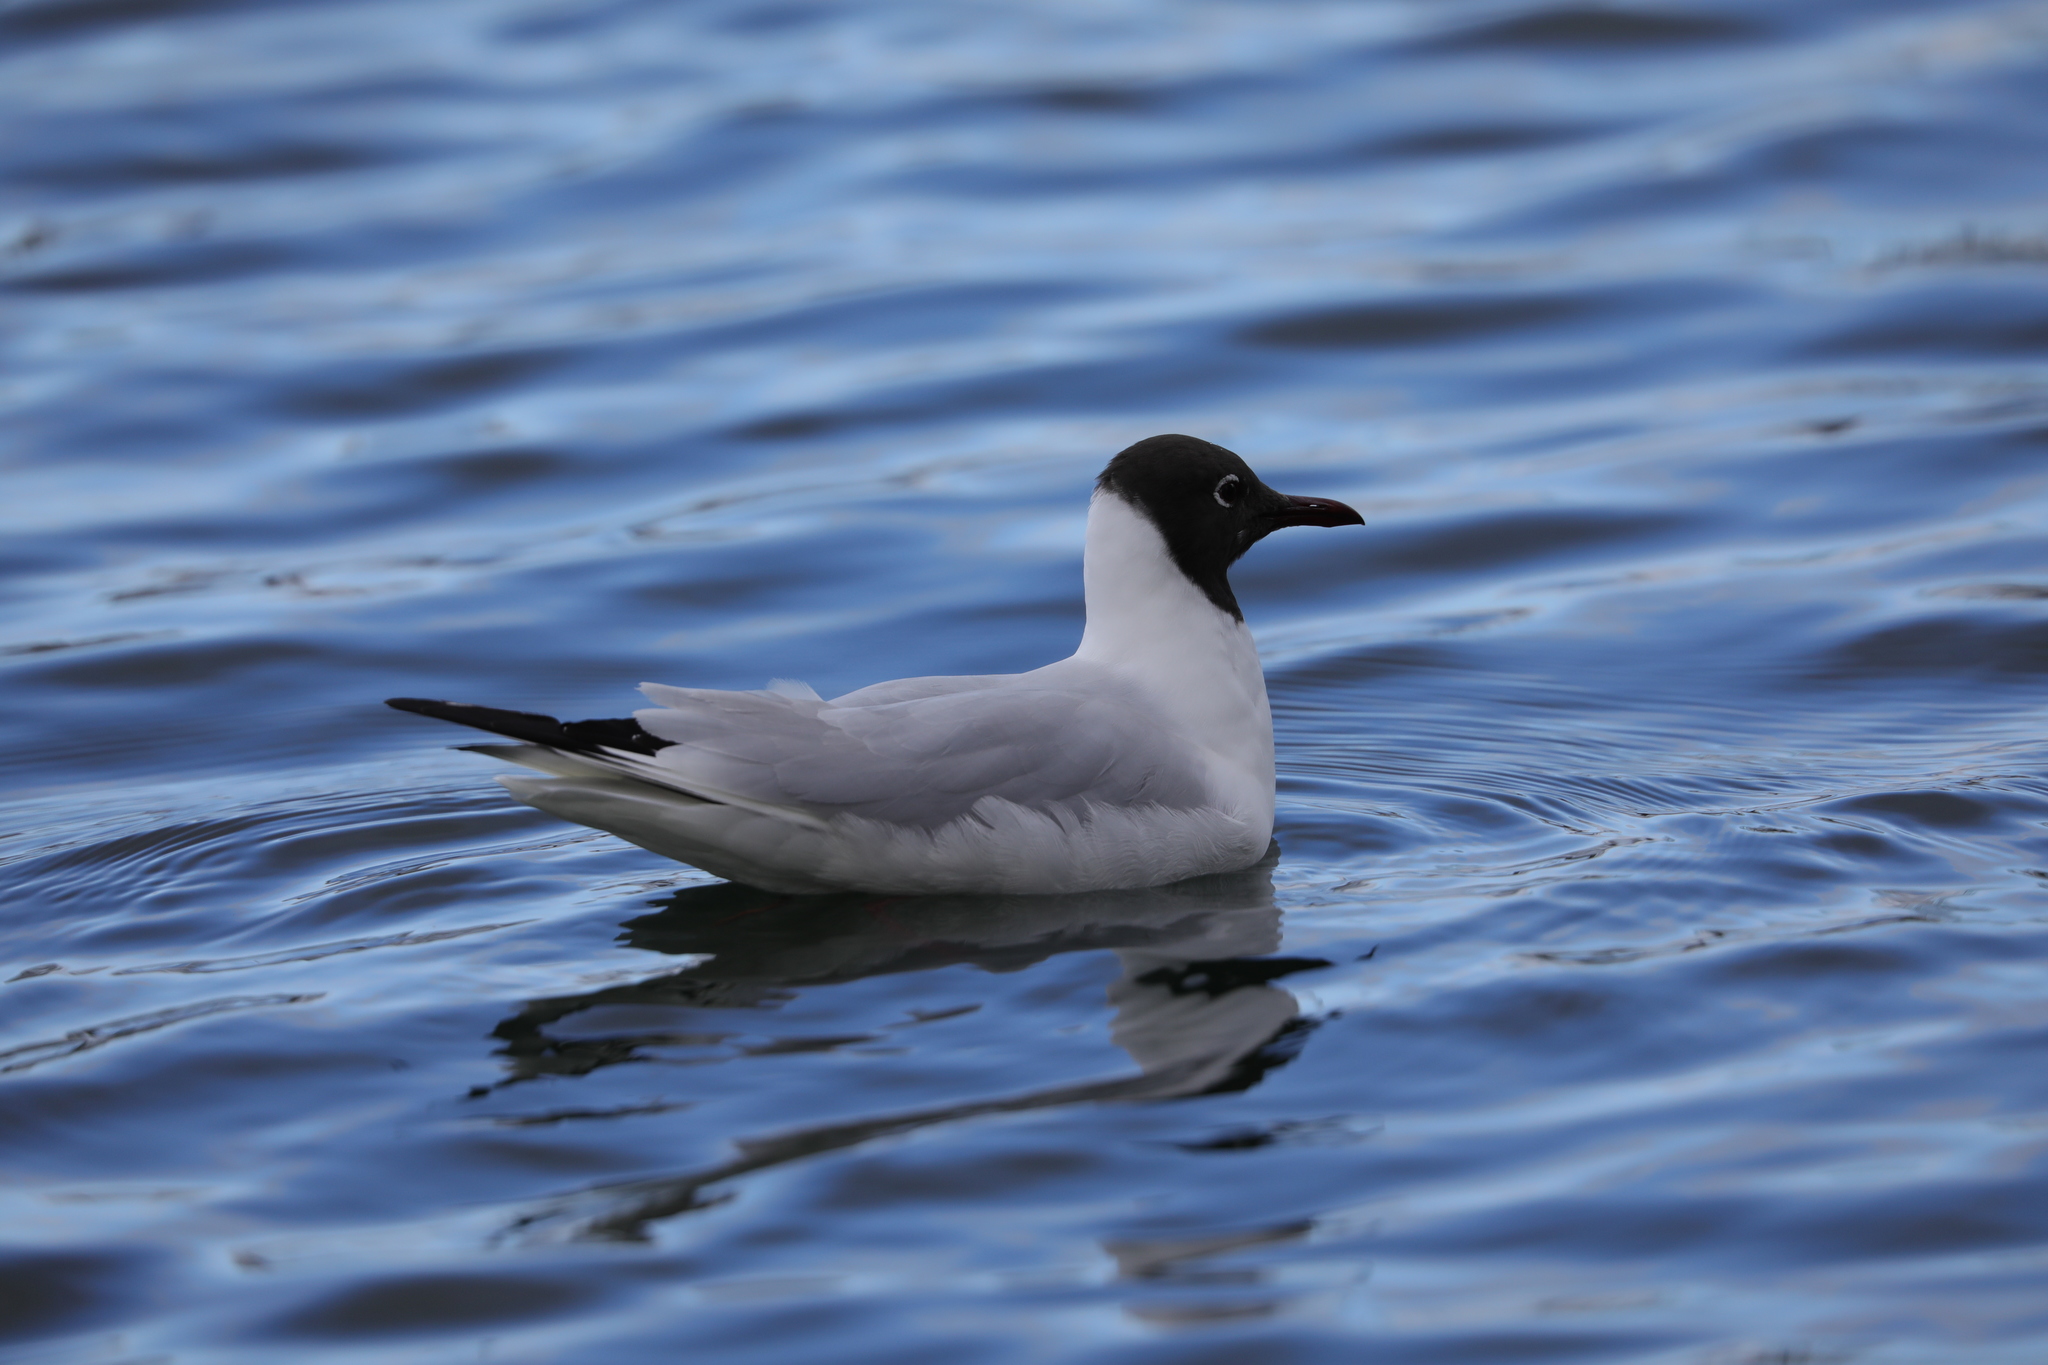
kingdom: Animalia
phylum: Chordata
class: Aves
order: Charadriiformes
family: Laridae
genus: Chroicocephalus
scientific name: Chroicocephalus ridibundus
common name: Black-headed gull
